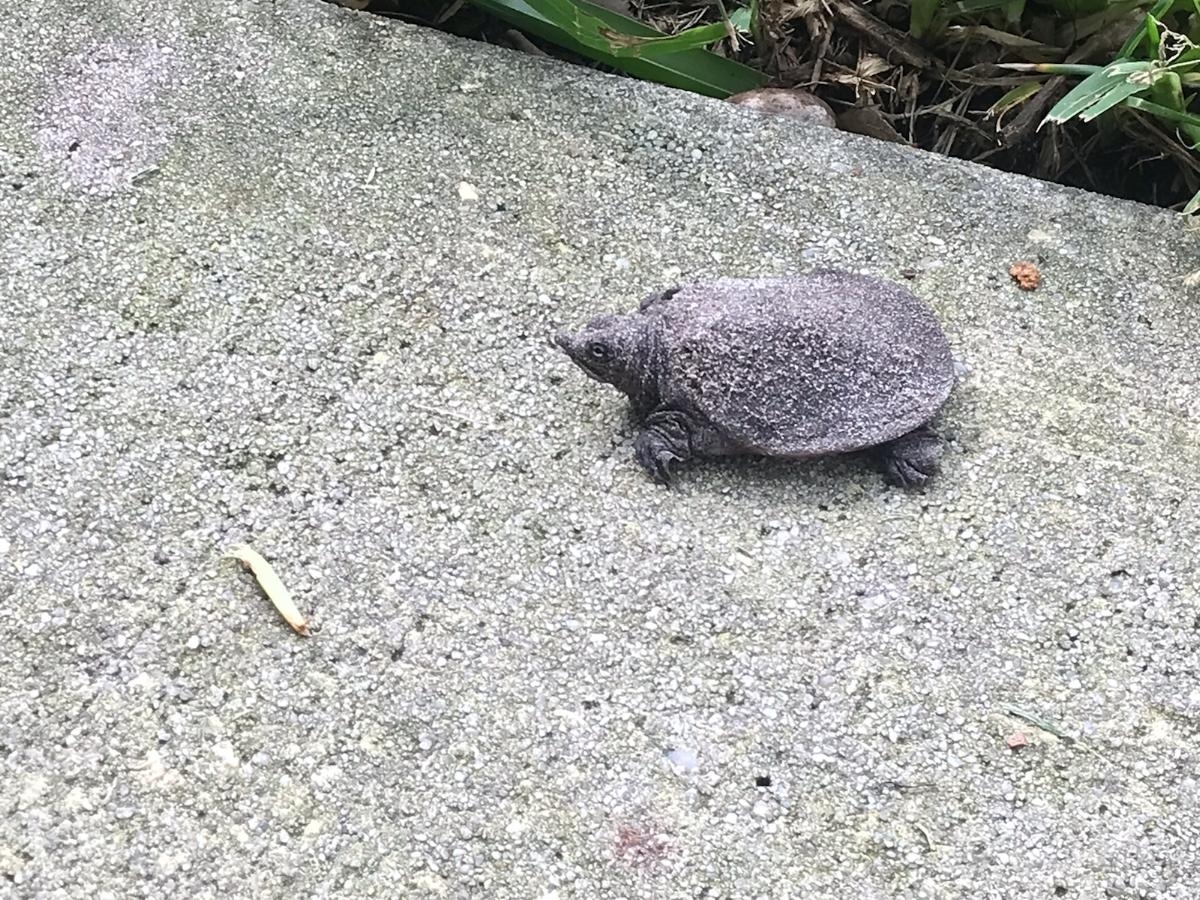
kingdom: Animalia
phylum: Chordata
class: Testudines
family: Trionychidae
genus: Apalone
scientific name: Apalone ferox
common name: Florida softshell turtle
